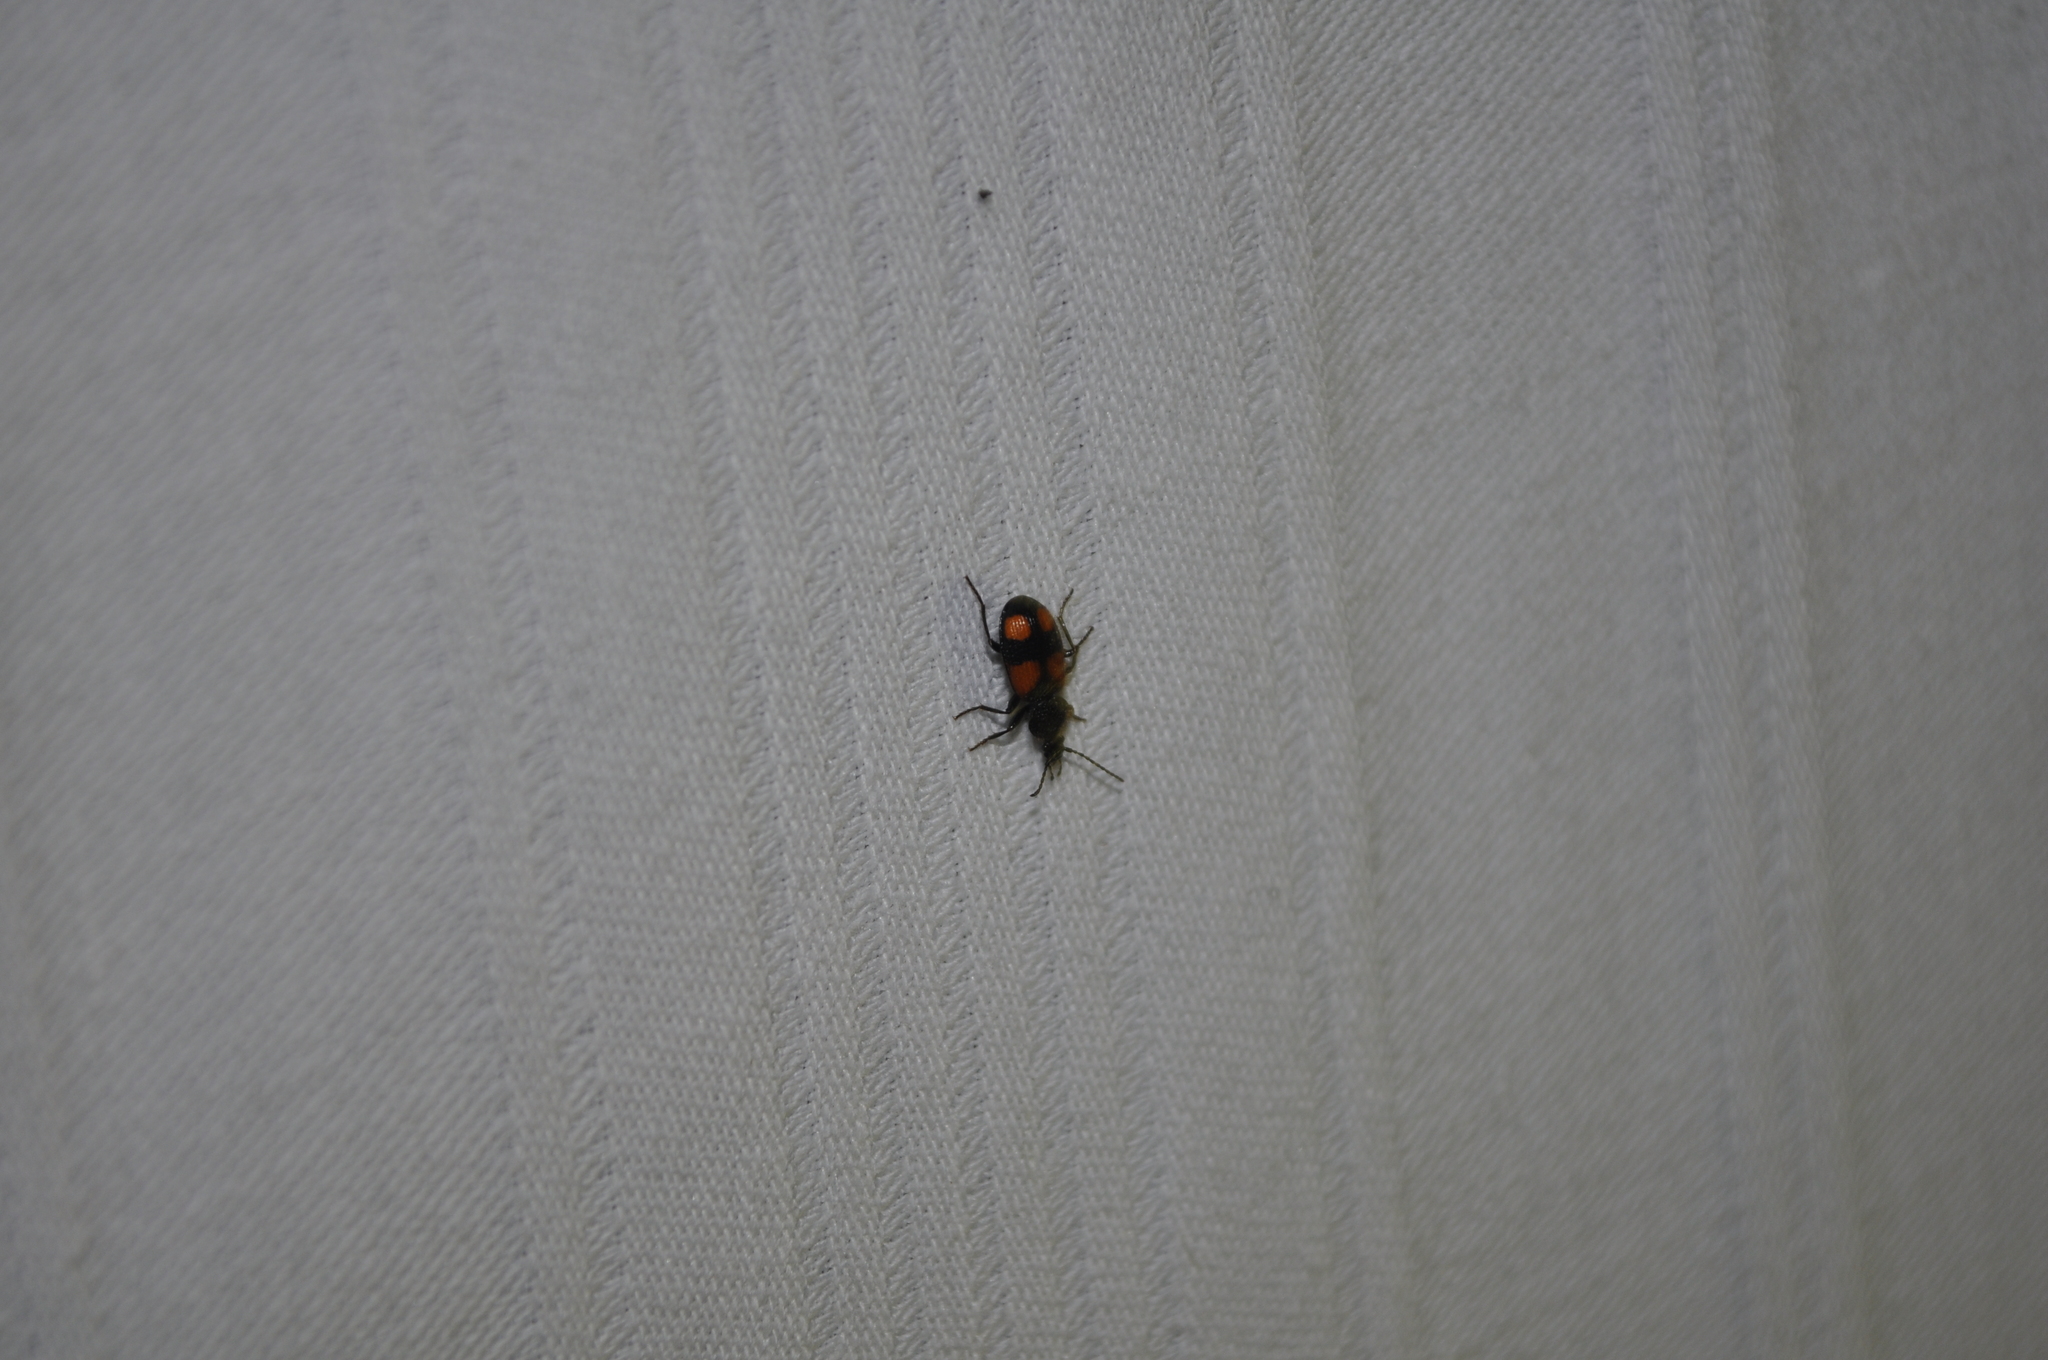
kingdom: Animalia
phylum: Arthropoda
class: Insecta
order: Coleoptera
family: Carabidae
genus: Panagaeus
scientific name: Panagaeus bipustulatus
